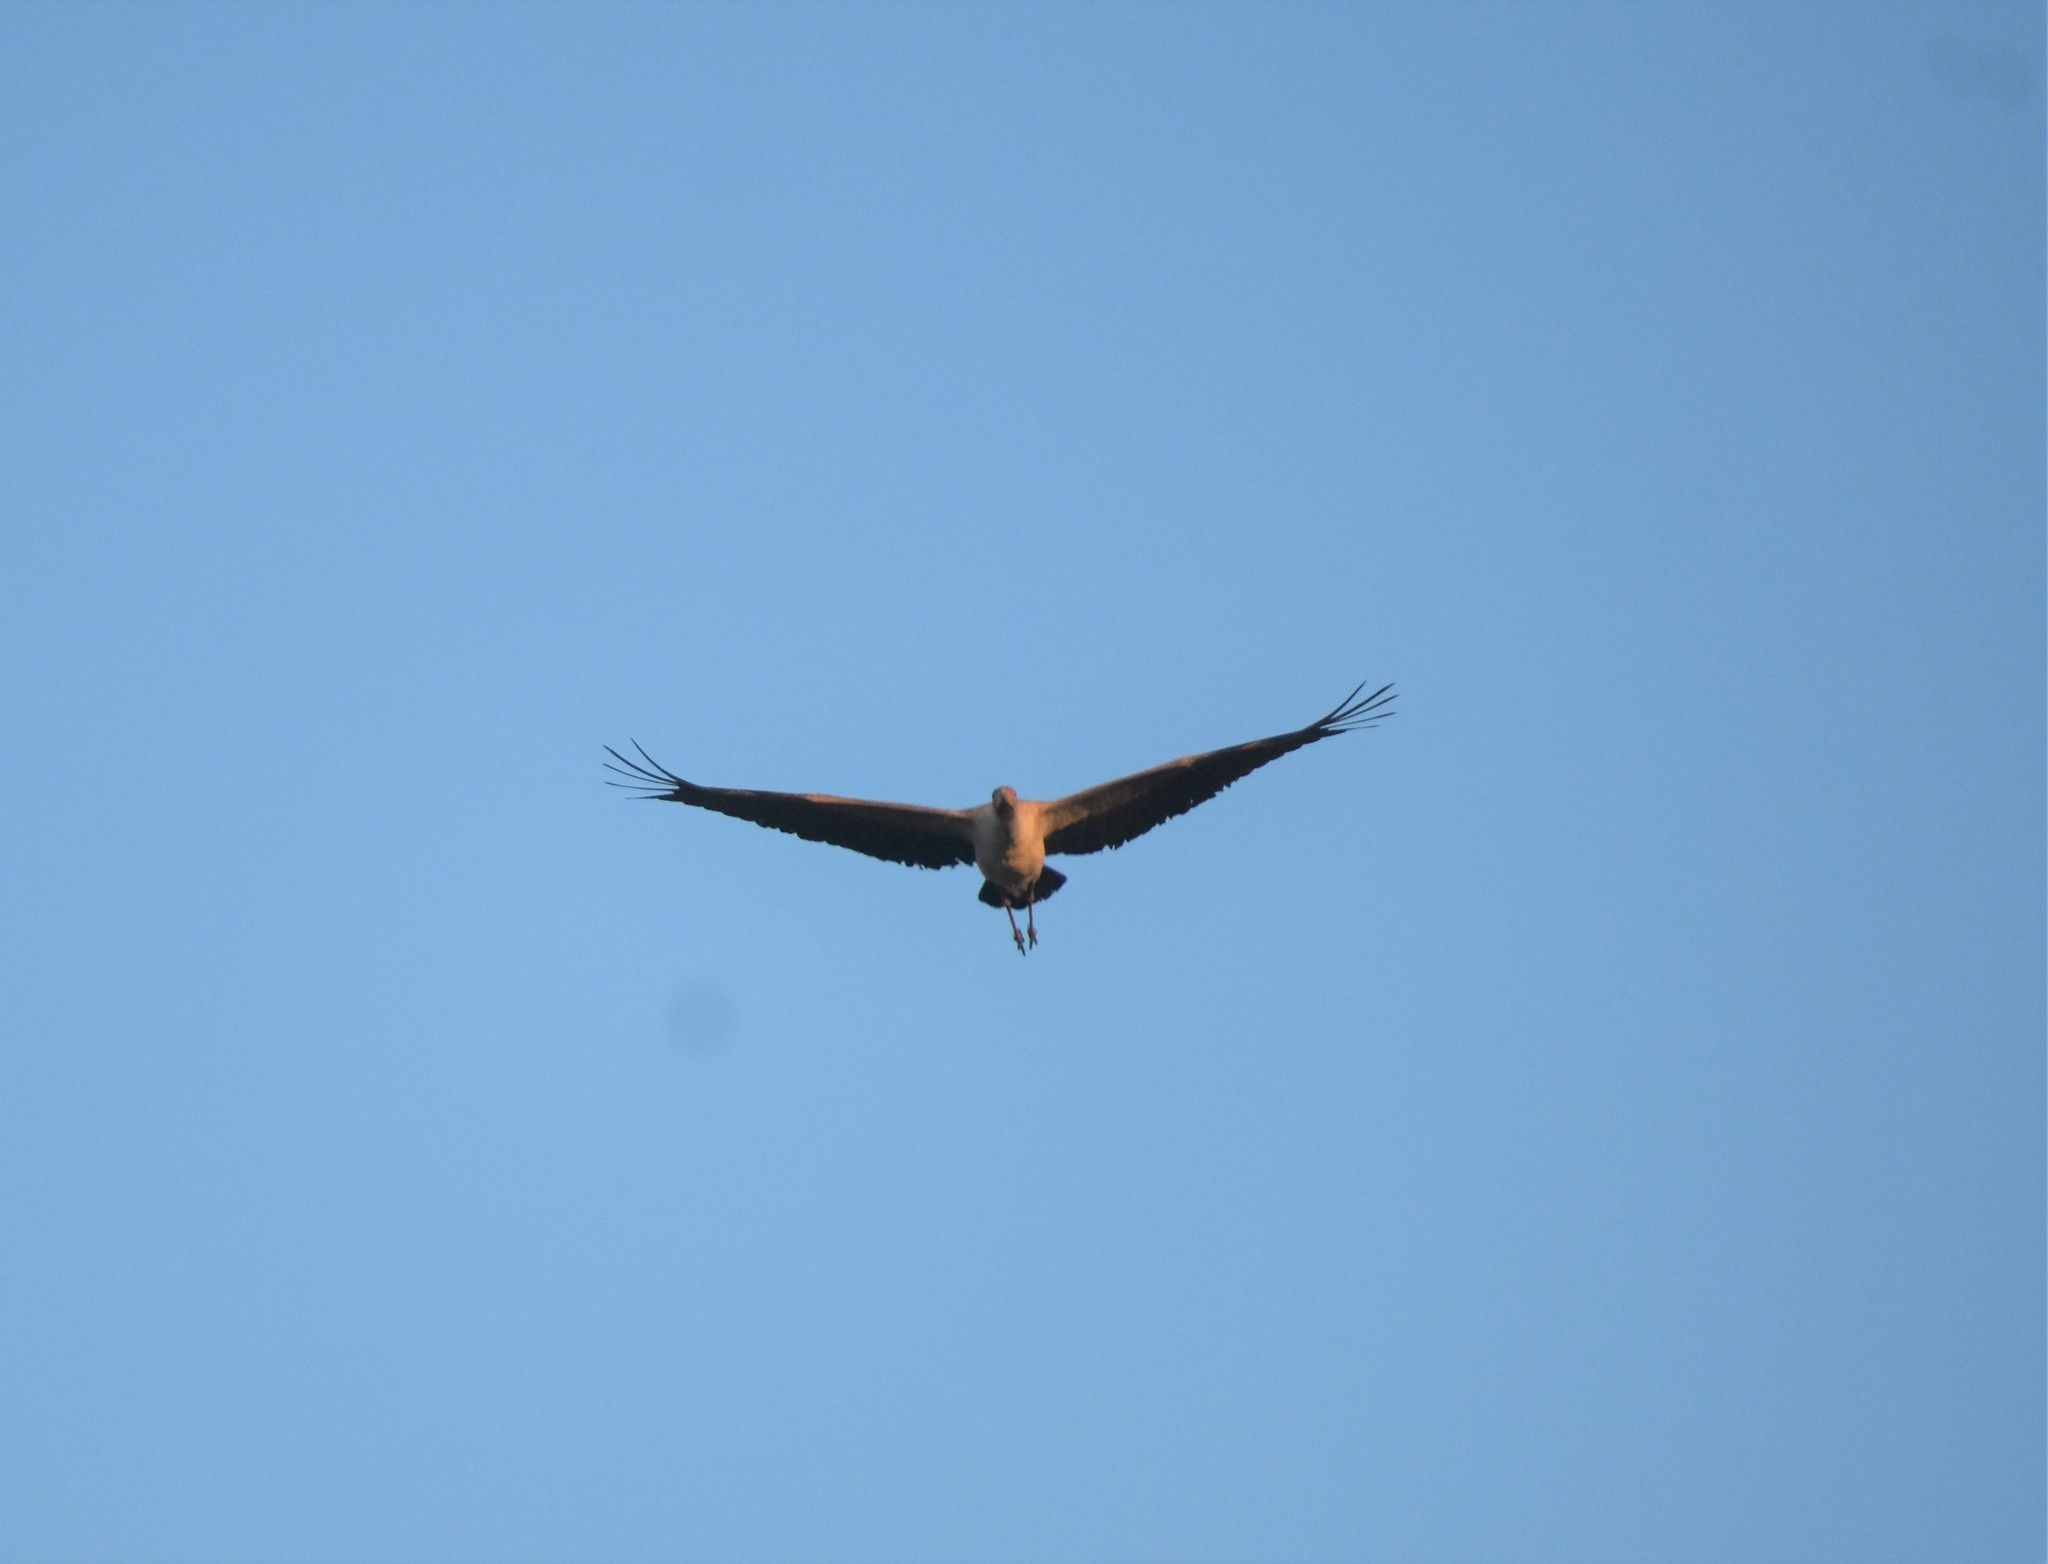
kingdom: Animalia
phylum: Chordata
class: Aves
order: Ciconiiformes
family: Ciconiidae
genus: Mycteria
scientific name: Mycteria ibis
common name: Yellow-billed stork
